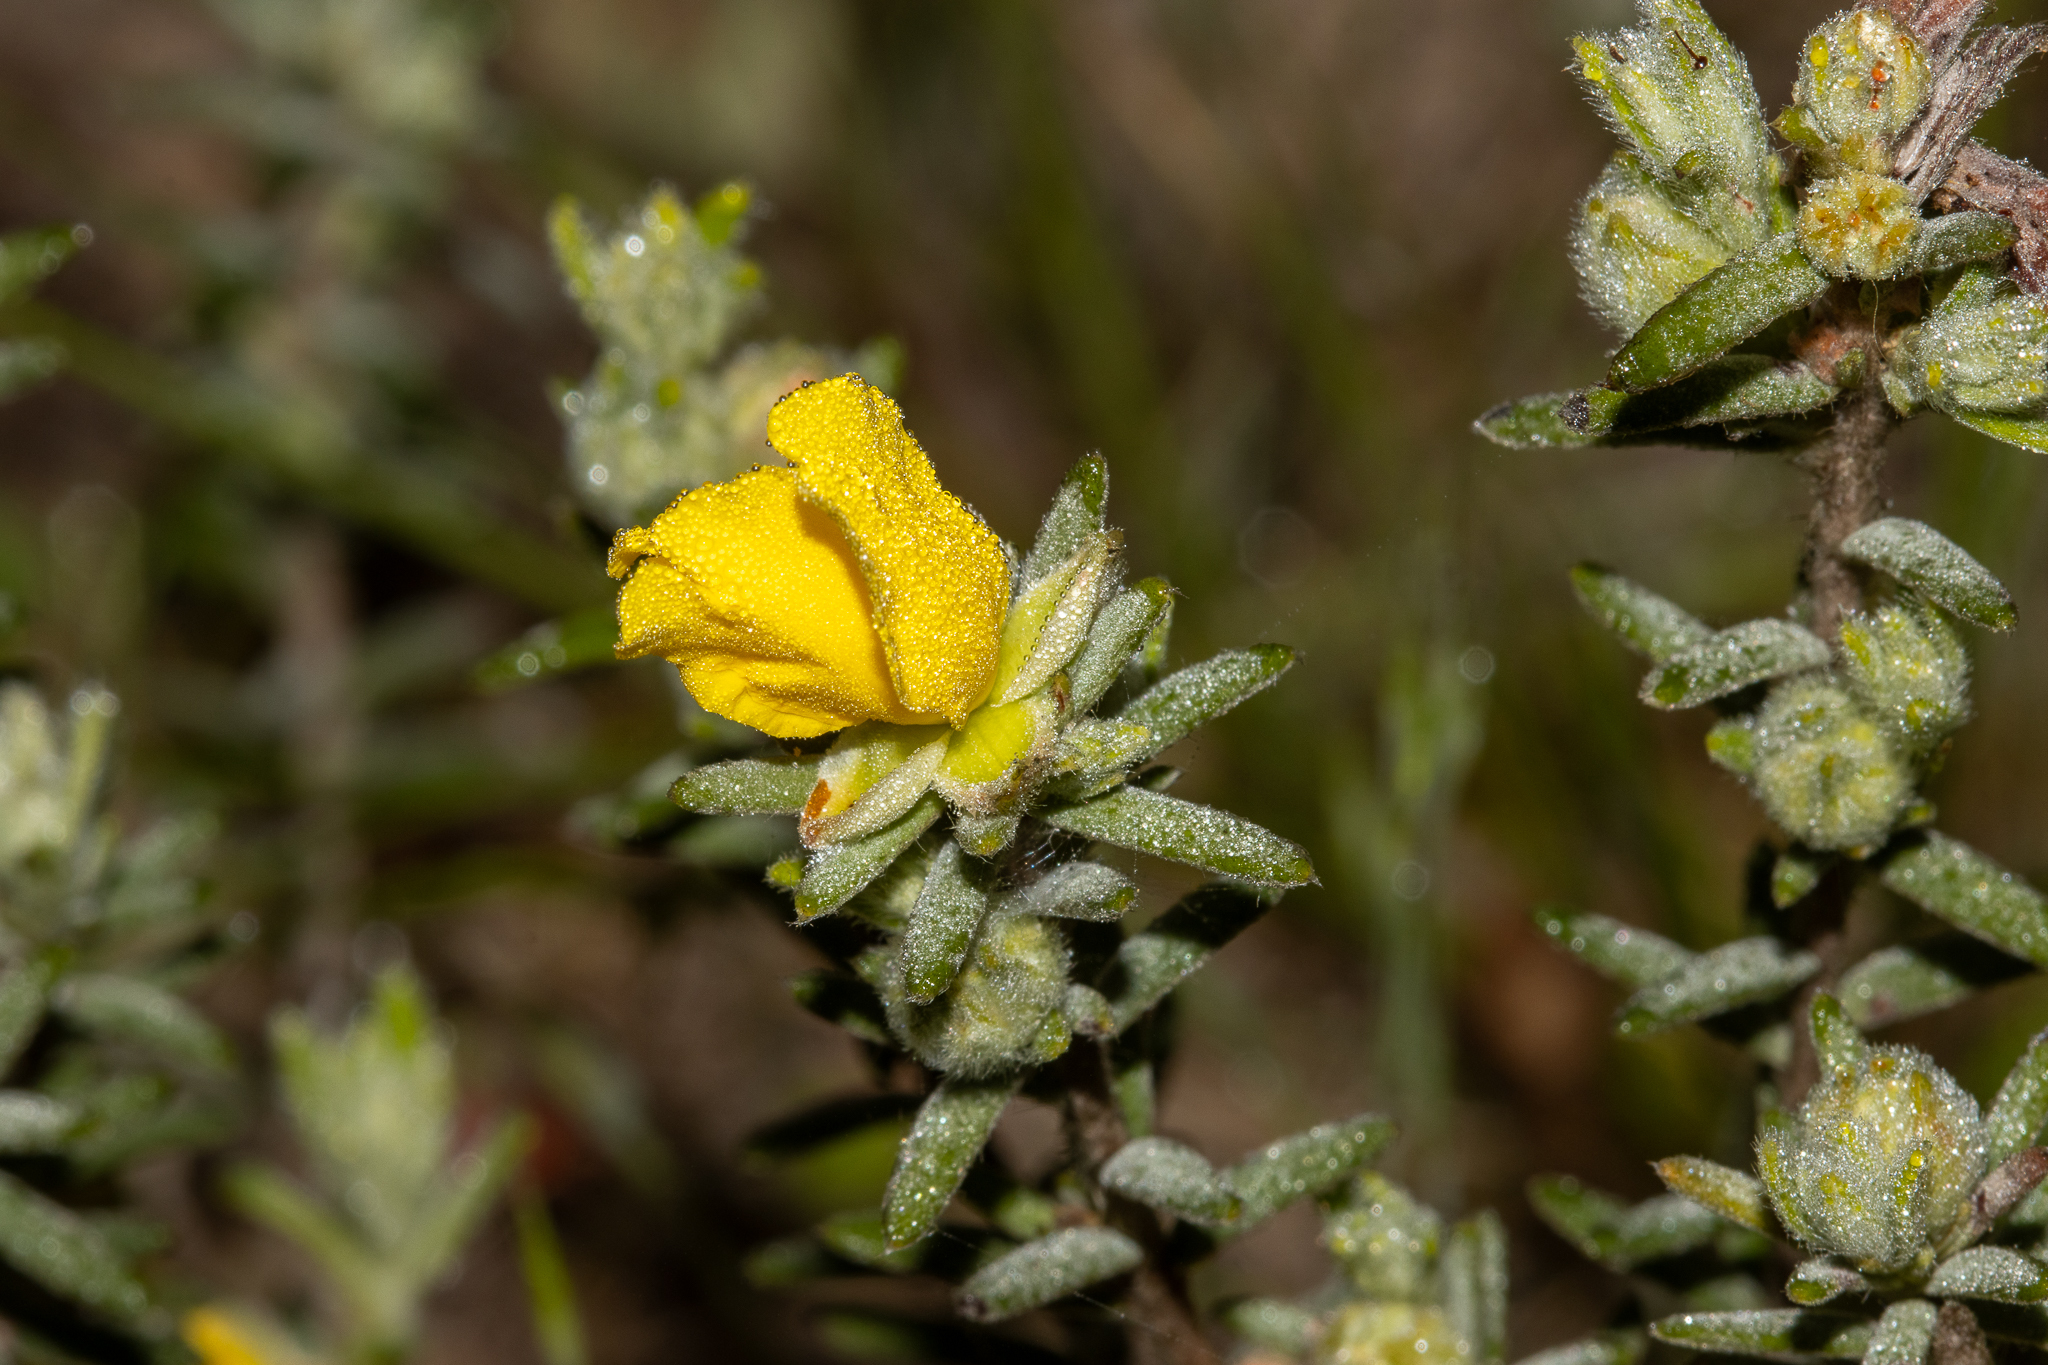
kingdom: Plantae
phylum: Tracheophyta
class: Magnoliopsida
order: Dilleniales
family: Dilleniaceae
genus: Hibbertia
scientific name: Hibbertia crinita
